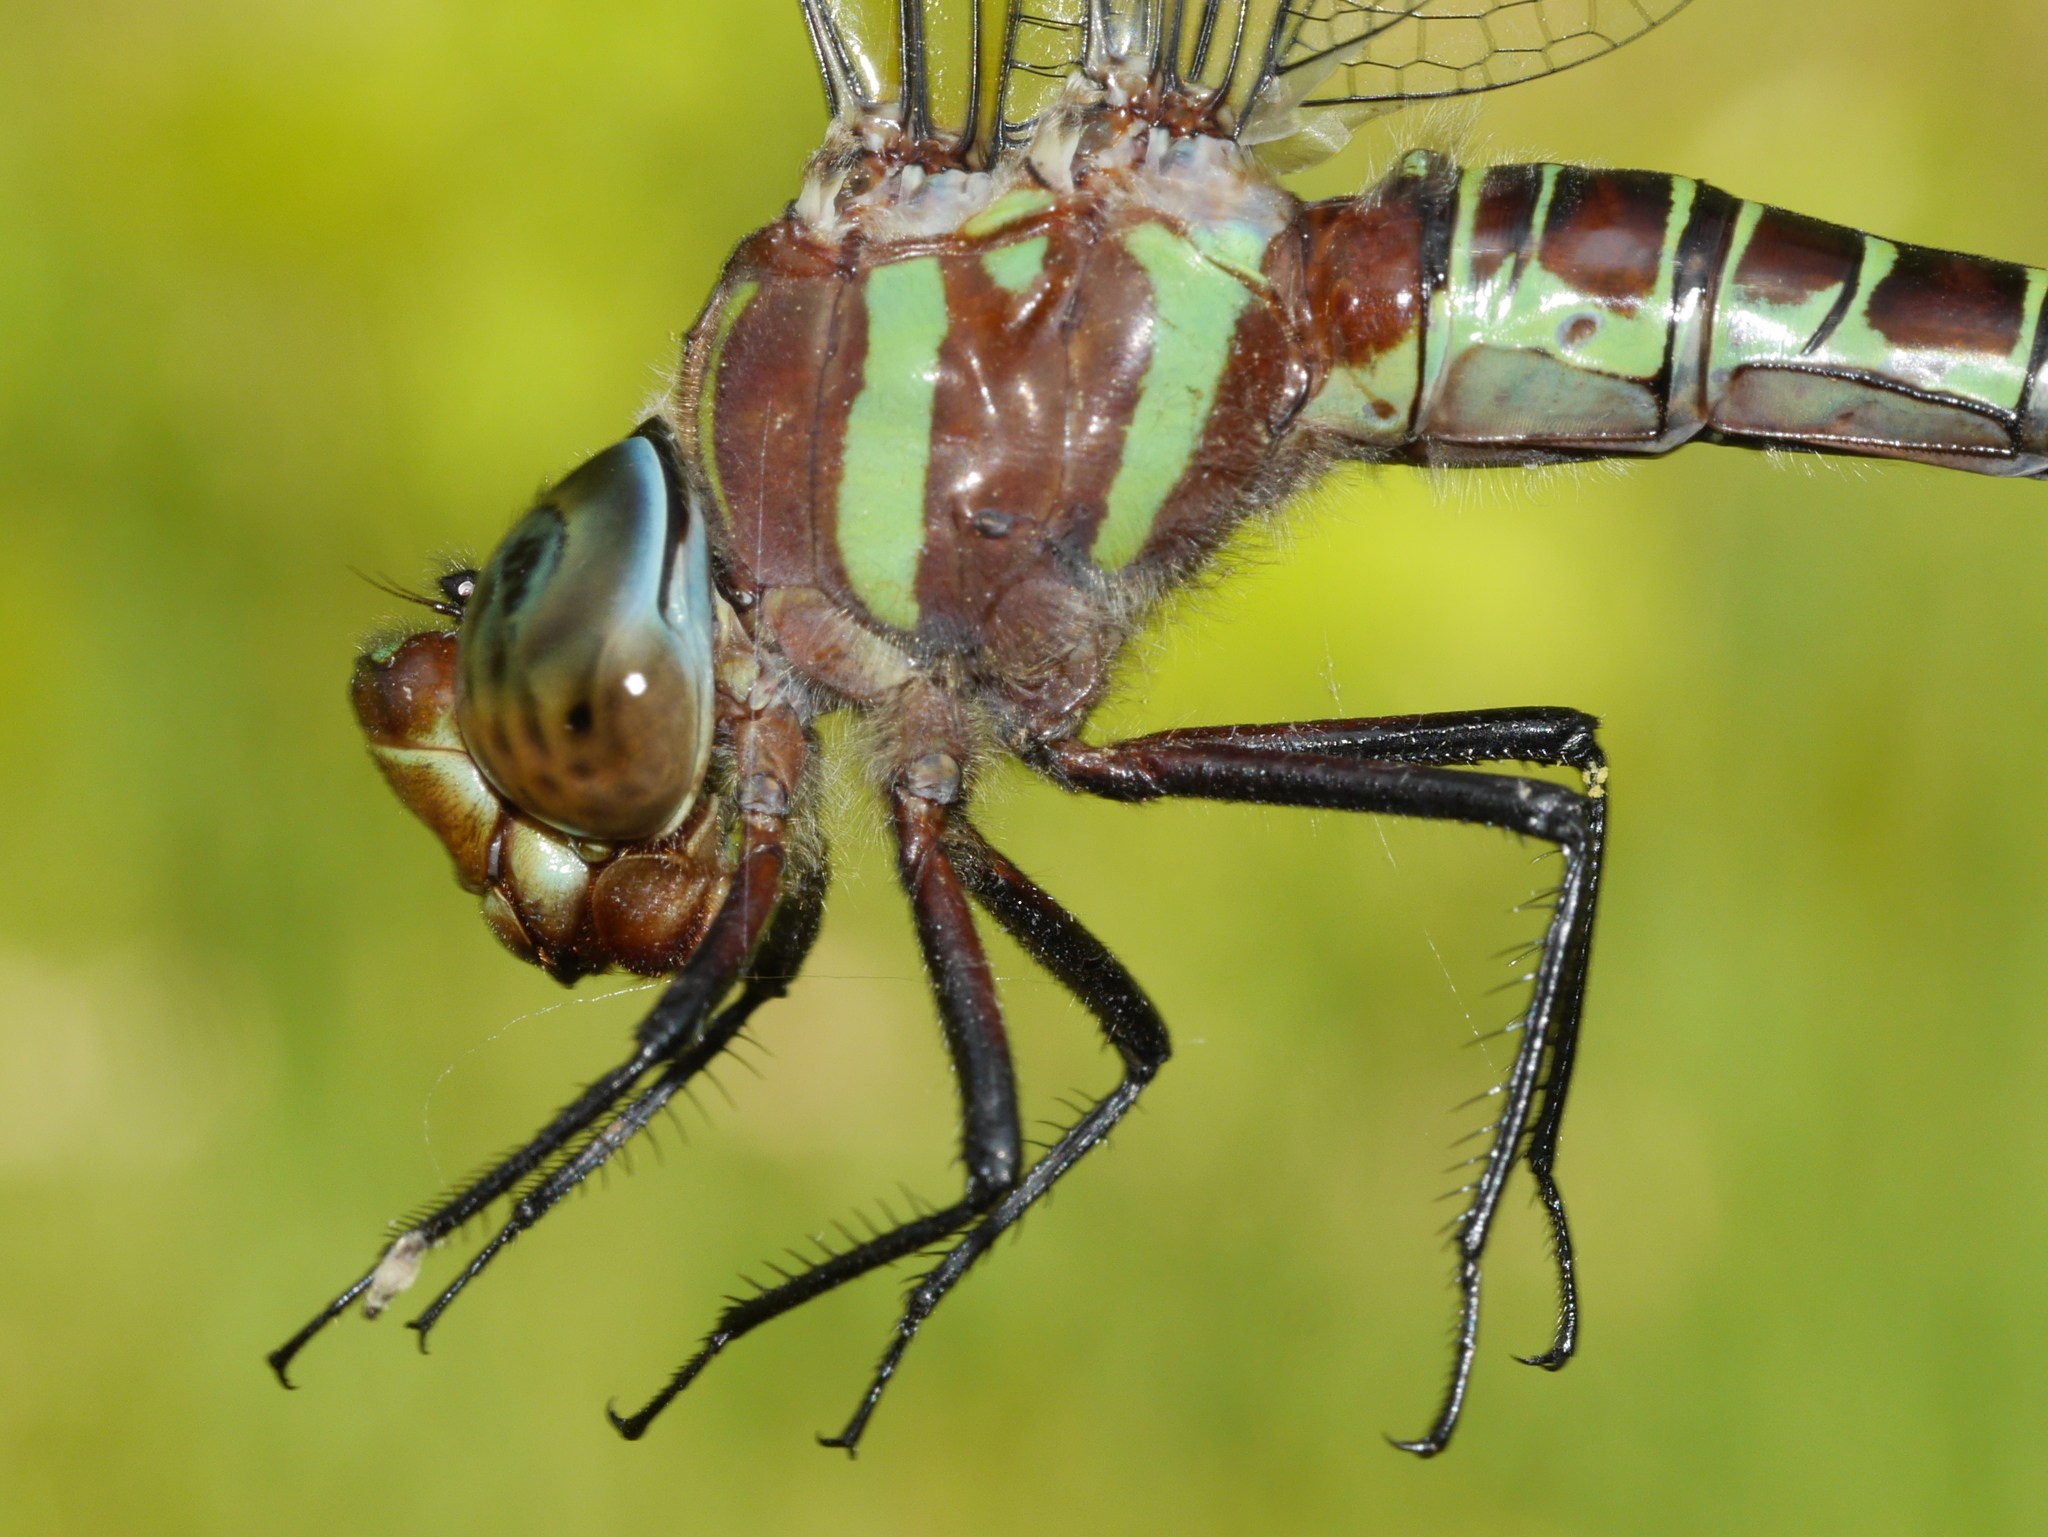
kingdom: Animalia
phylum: Arthropoda
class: Insecta
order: Odonata
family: Aeshnidae
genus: Epiaeschna
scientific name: Epiaeschna heros
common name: Swamp darner
